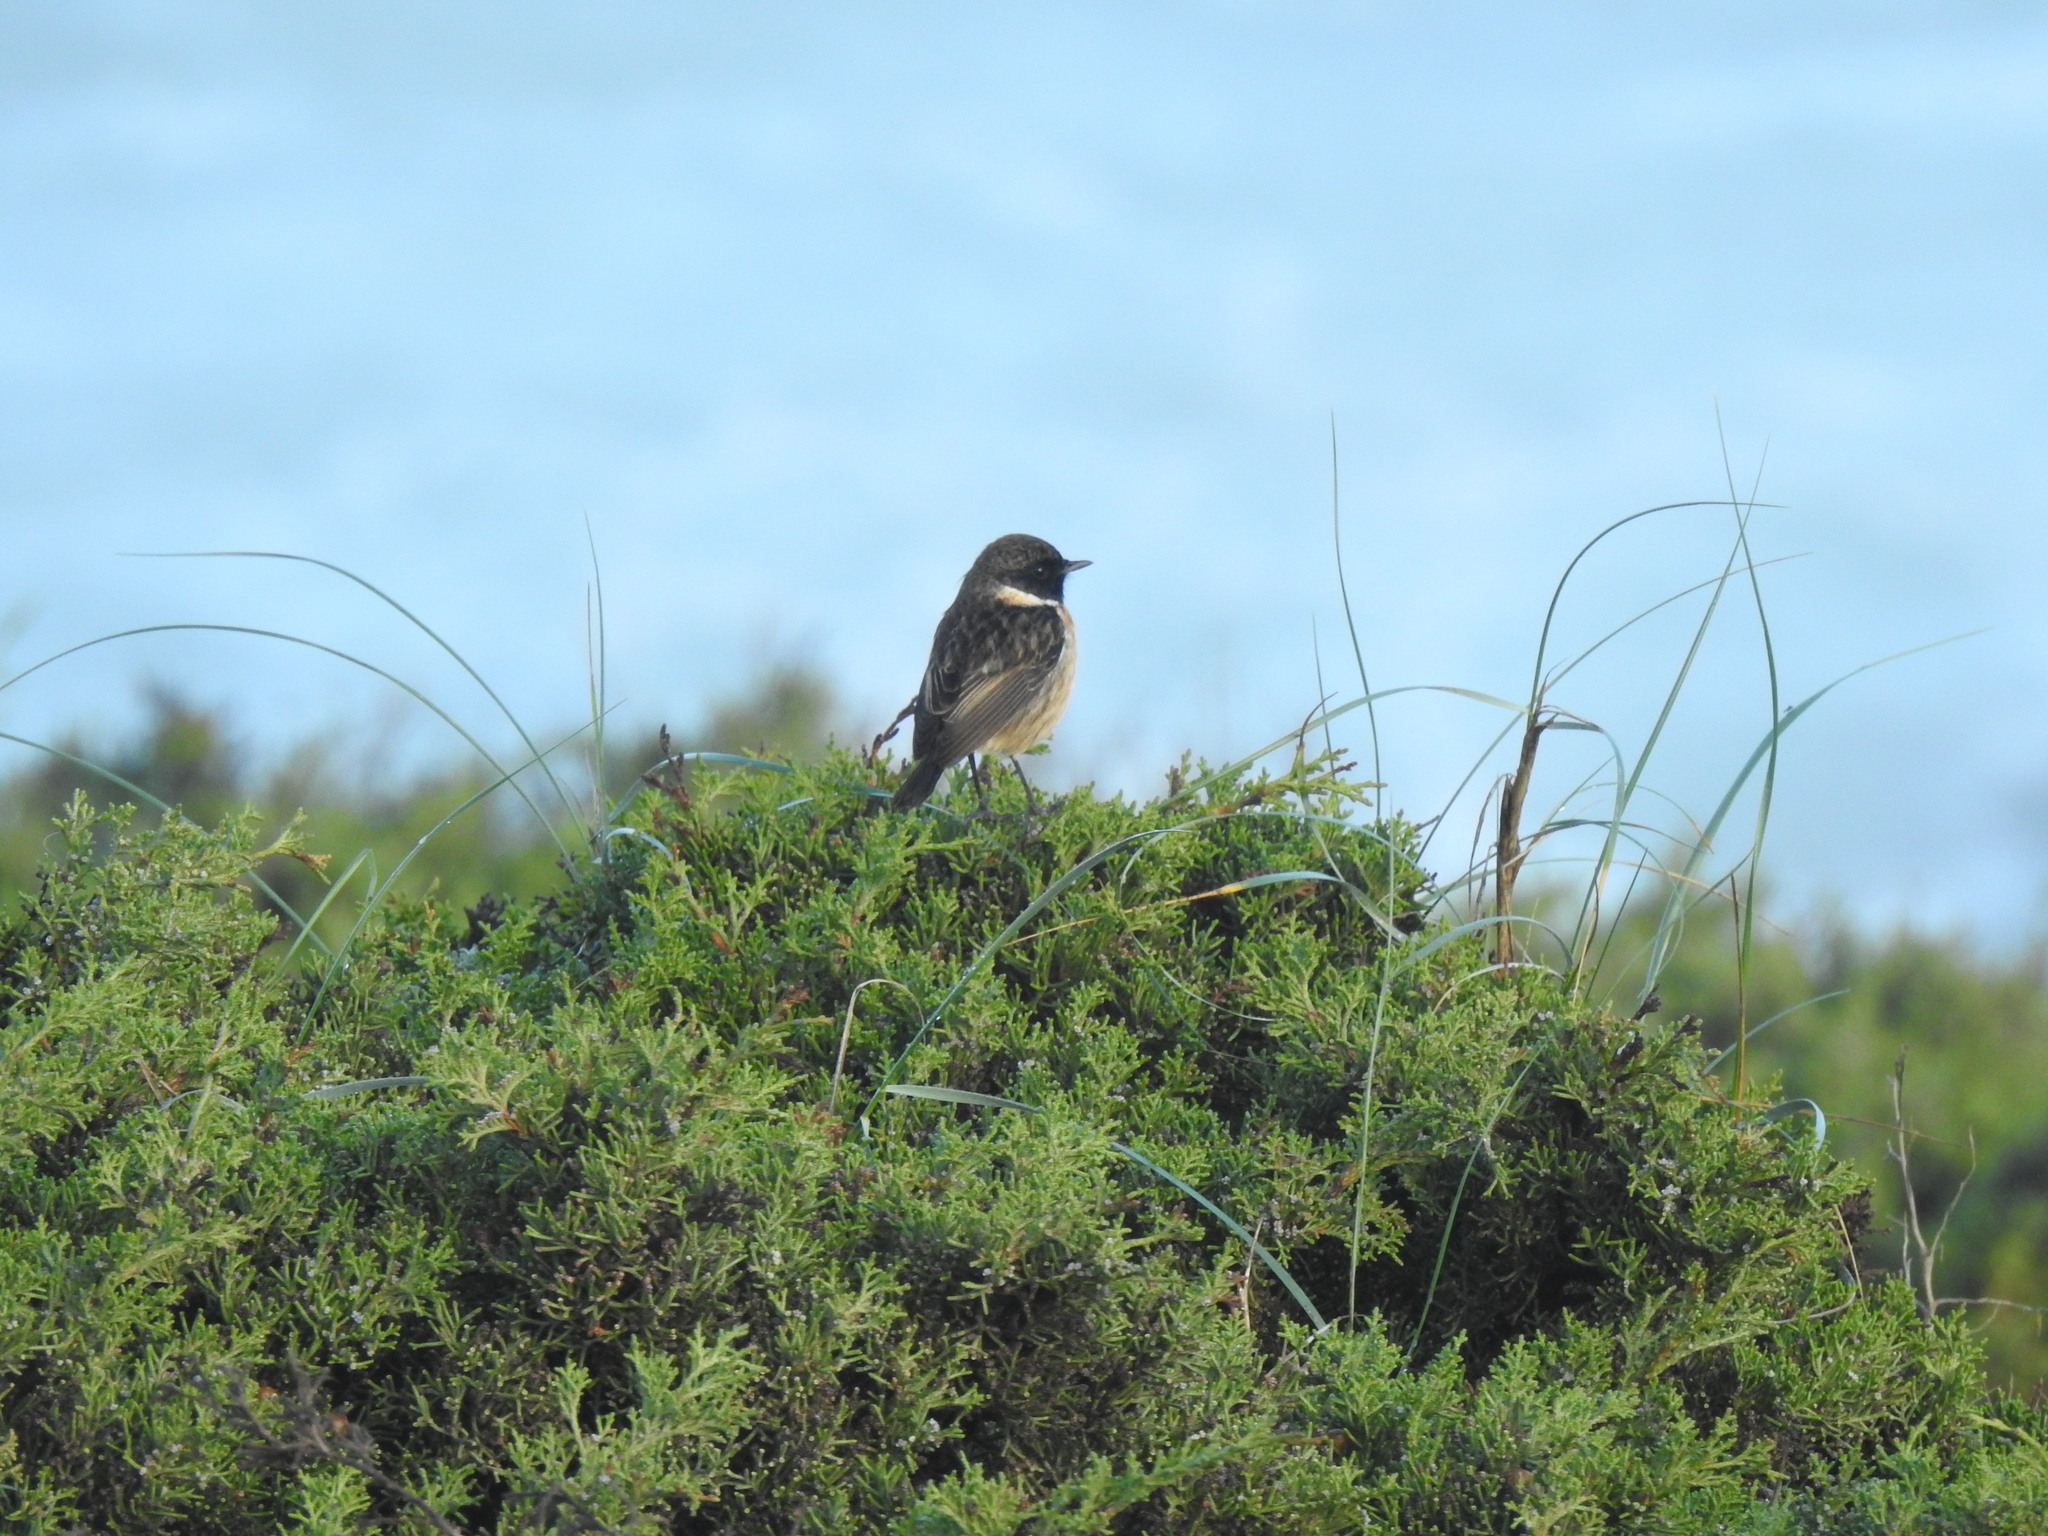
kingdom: Animalia
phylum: Chordata
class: Aves
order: Passeriformes
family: Muscicapidae
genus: Saxicola
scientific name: Saxicola rubicola
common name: European stonechat
